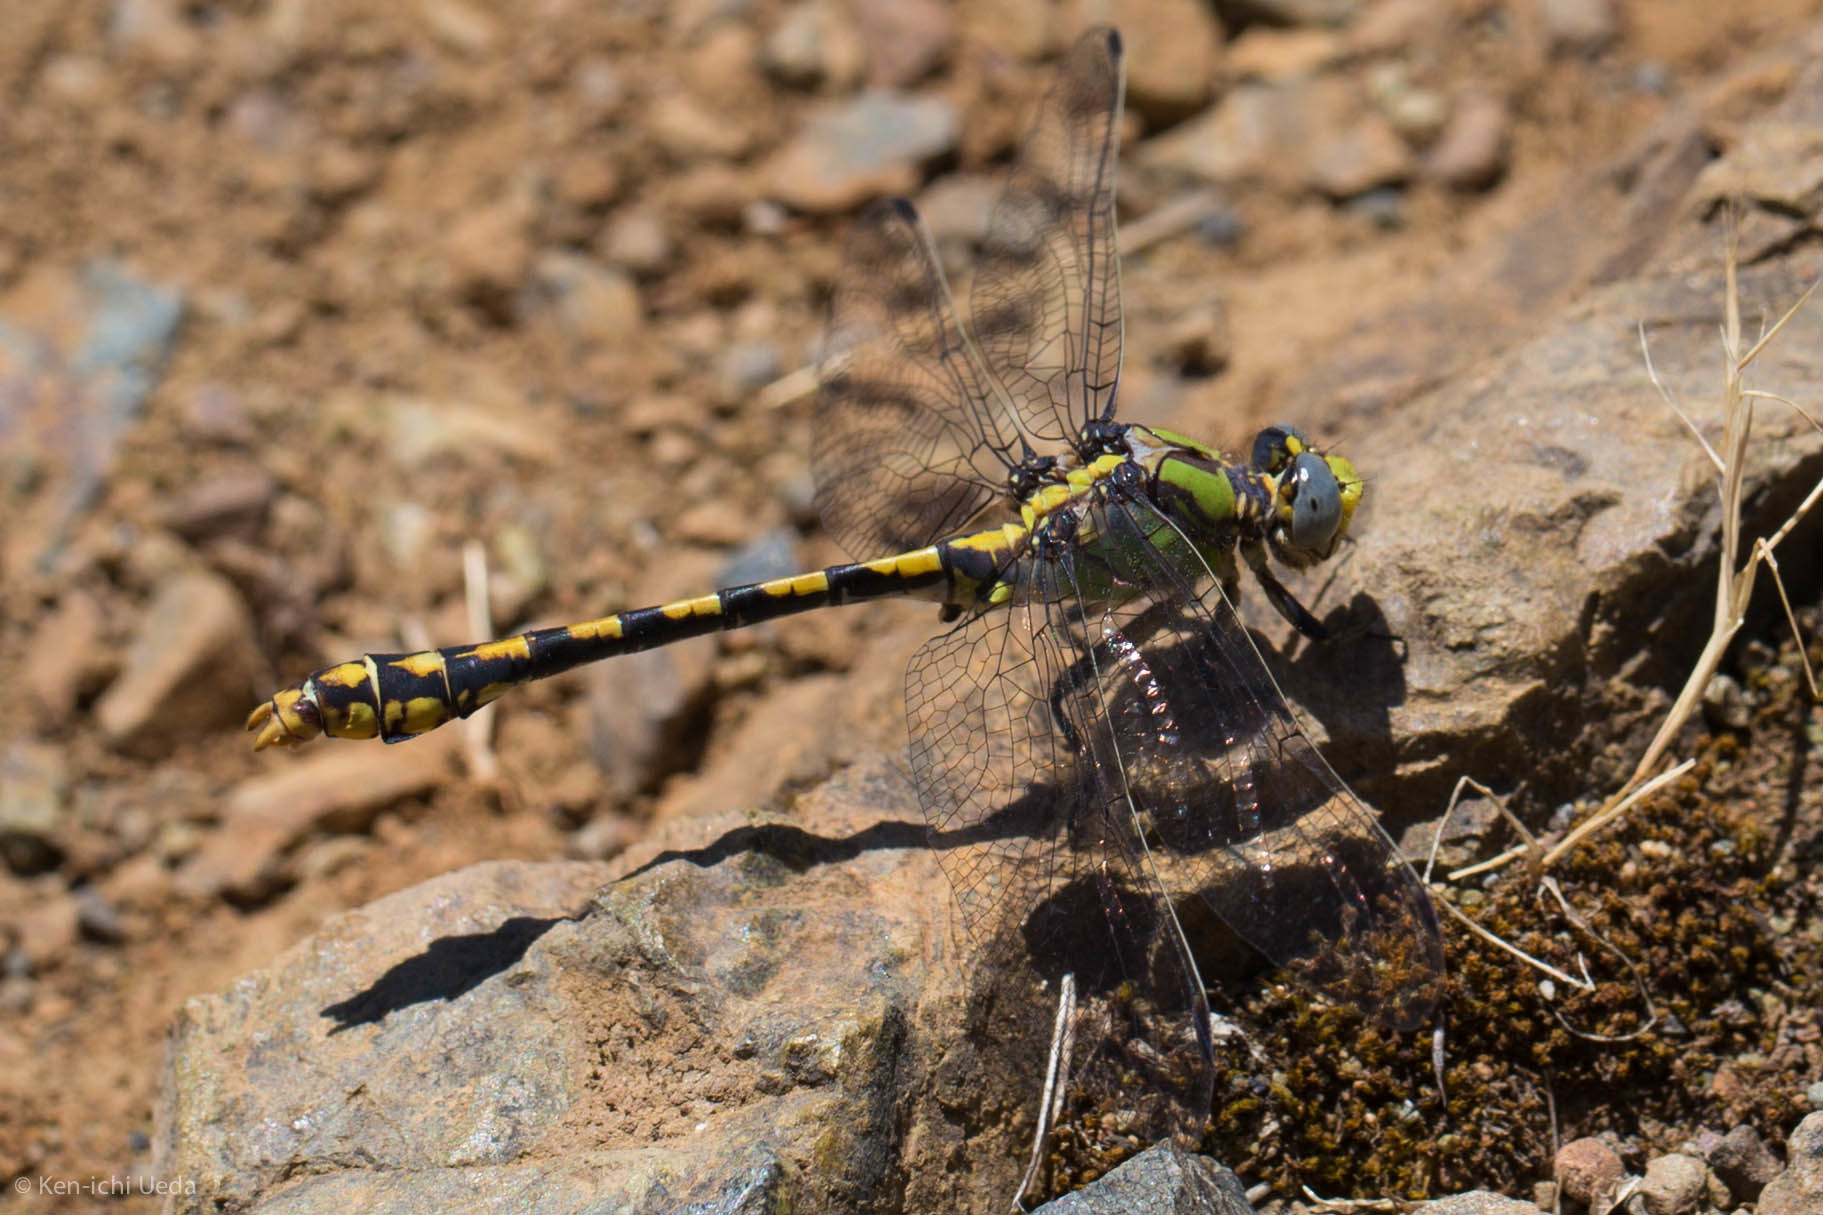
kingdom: Animalia
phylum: Arthropoda
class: Insecta
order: Odonata
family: Gomphidae
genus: Ophiogomphus
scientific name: Ophiogomphus occidentis
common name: Sinuous snaketail
